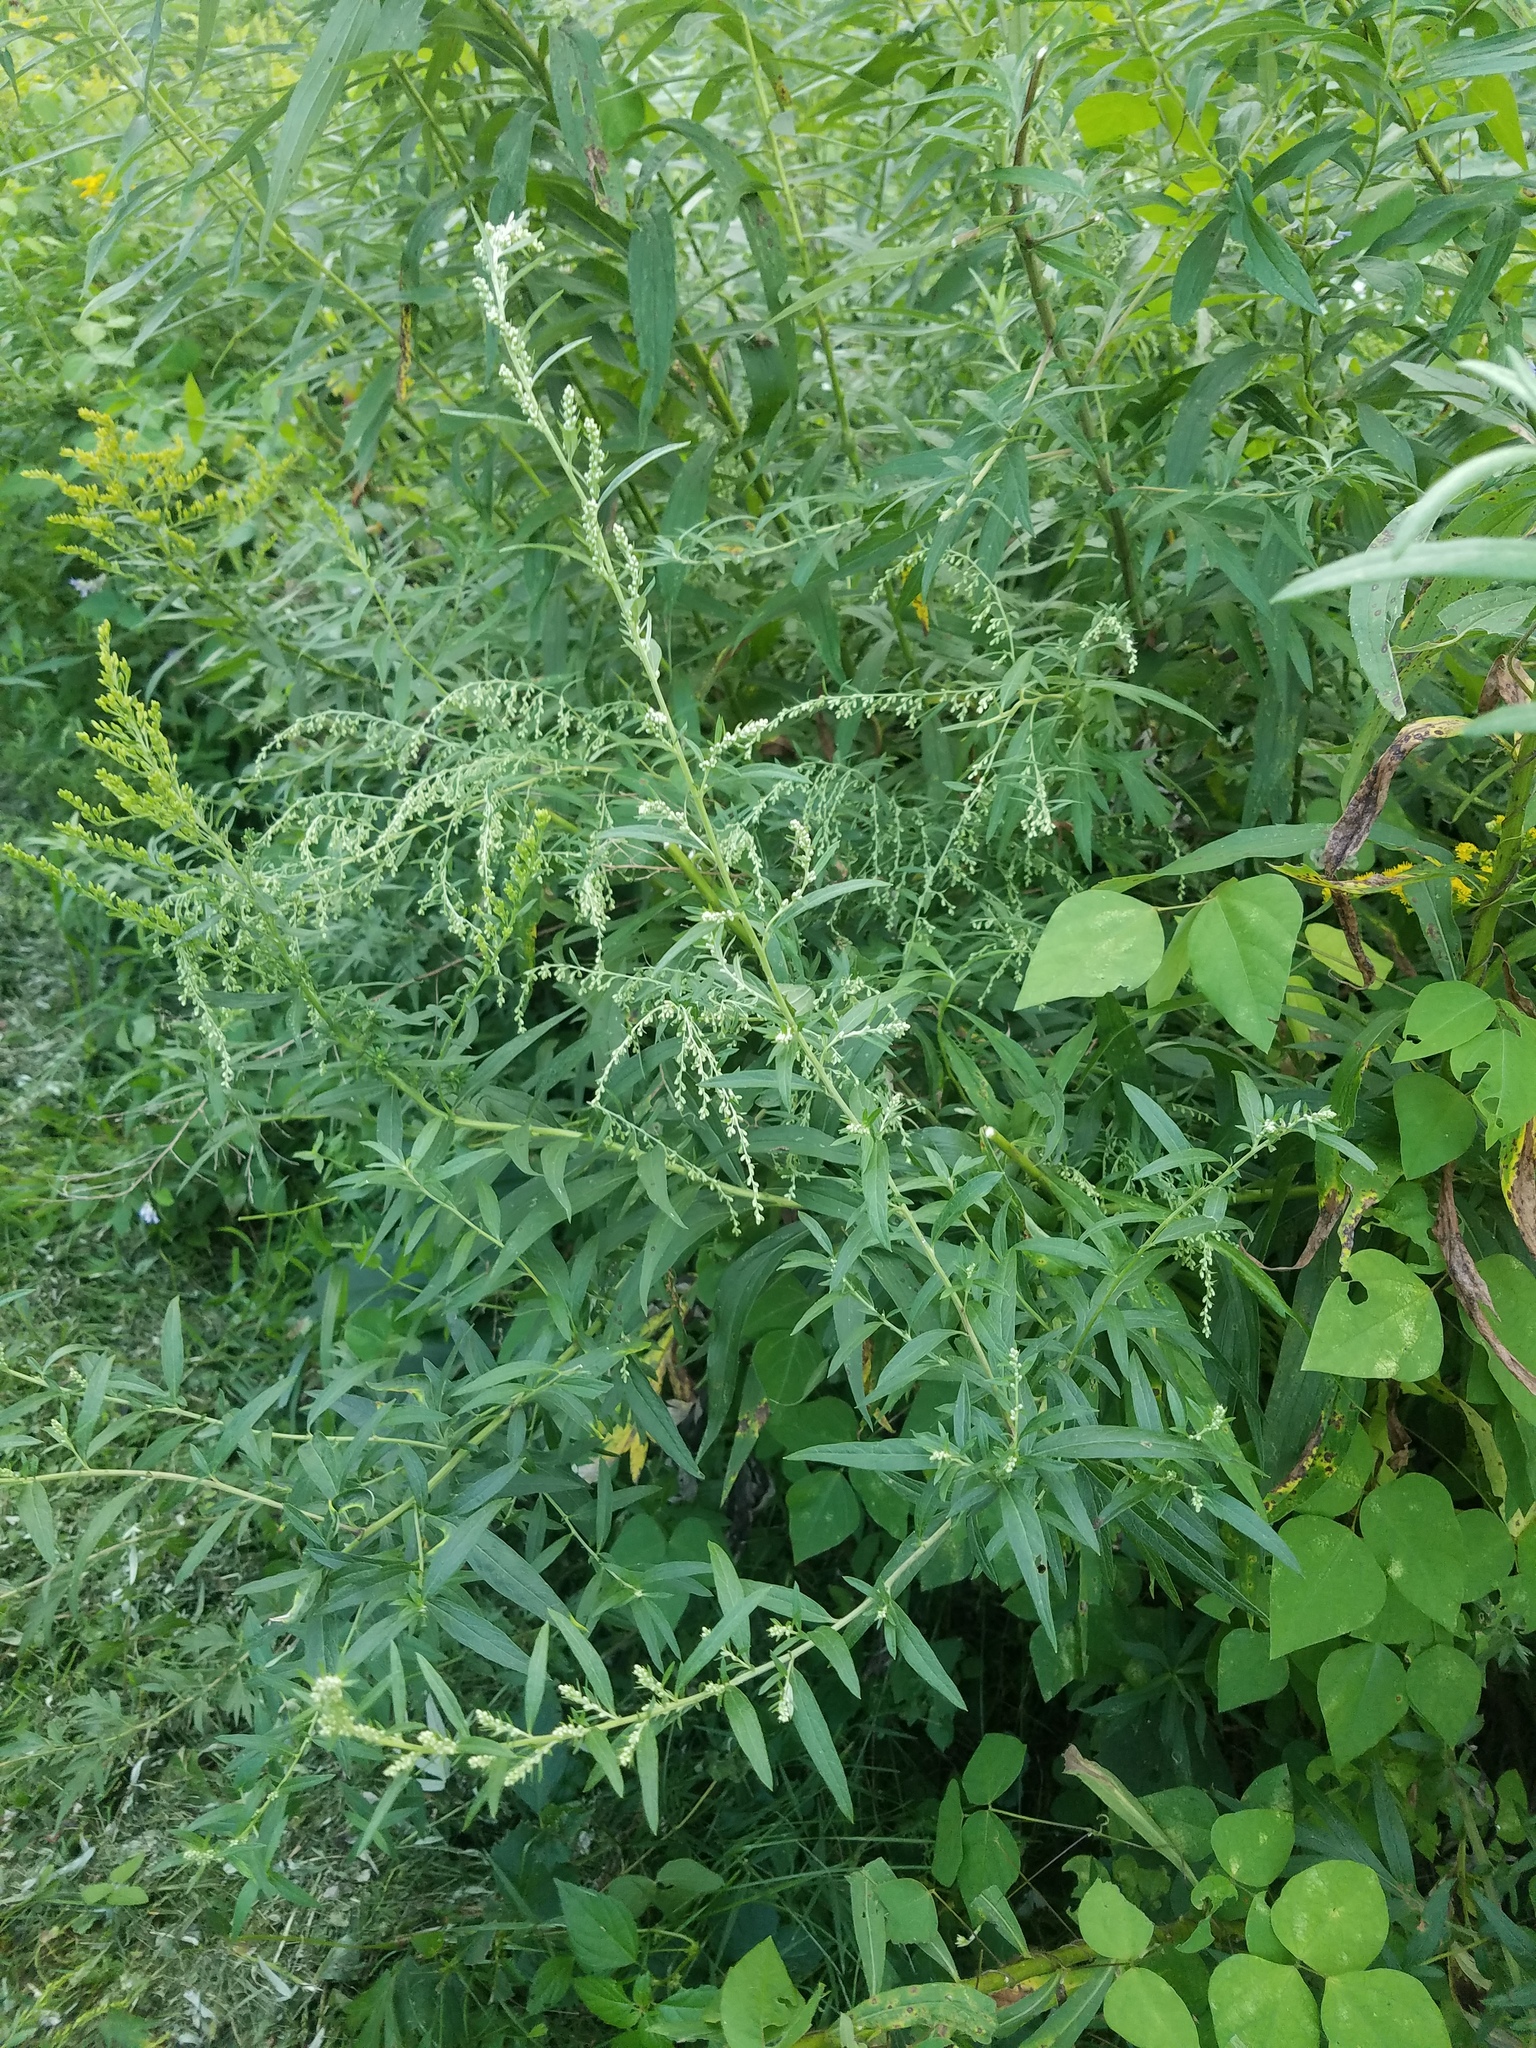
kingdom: Plantae
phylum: Tracheophyta
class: Magnoliopsida
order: Asterales
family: Asteraceae
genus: Artemisia
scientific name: Artemisia vulgaris
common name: Mugwort
